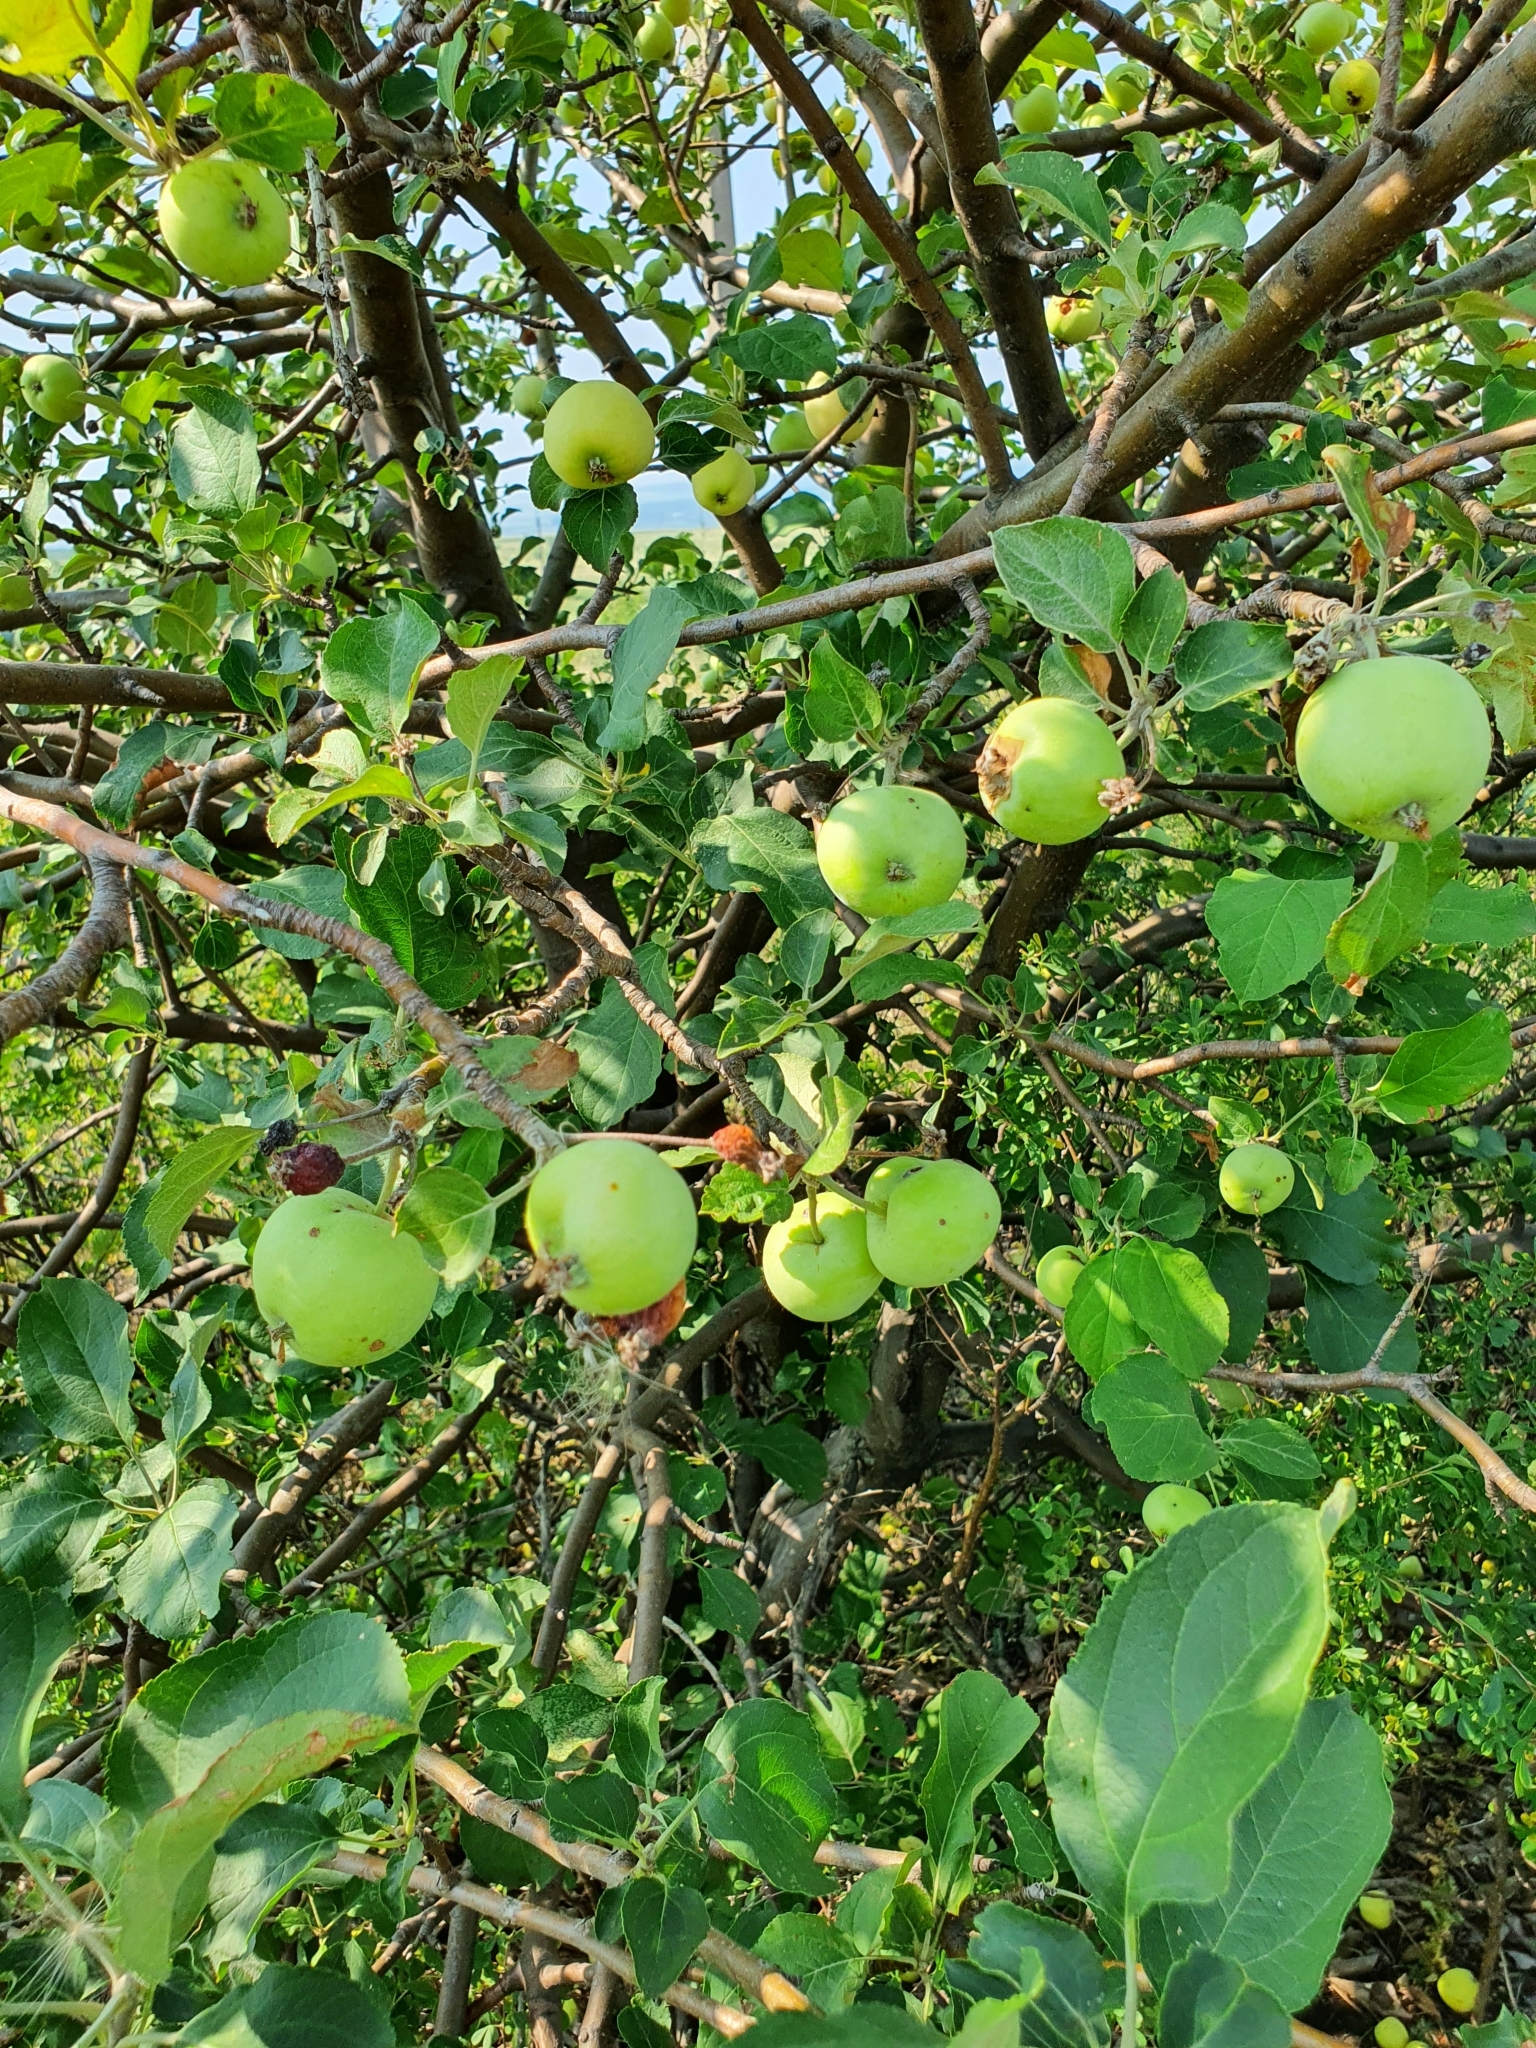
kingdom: Plantae
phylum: Tracheophyta
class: Magnoliopsida
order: Rosales
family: Rosaceae
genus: Malus
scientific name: Malus domestica
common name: Apple
